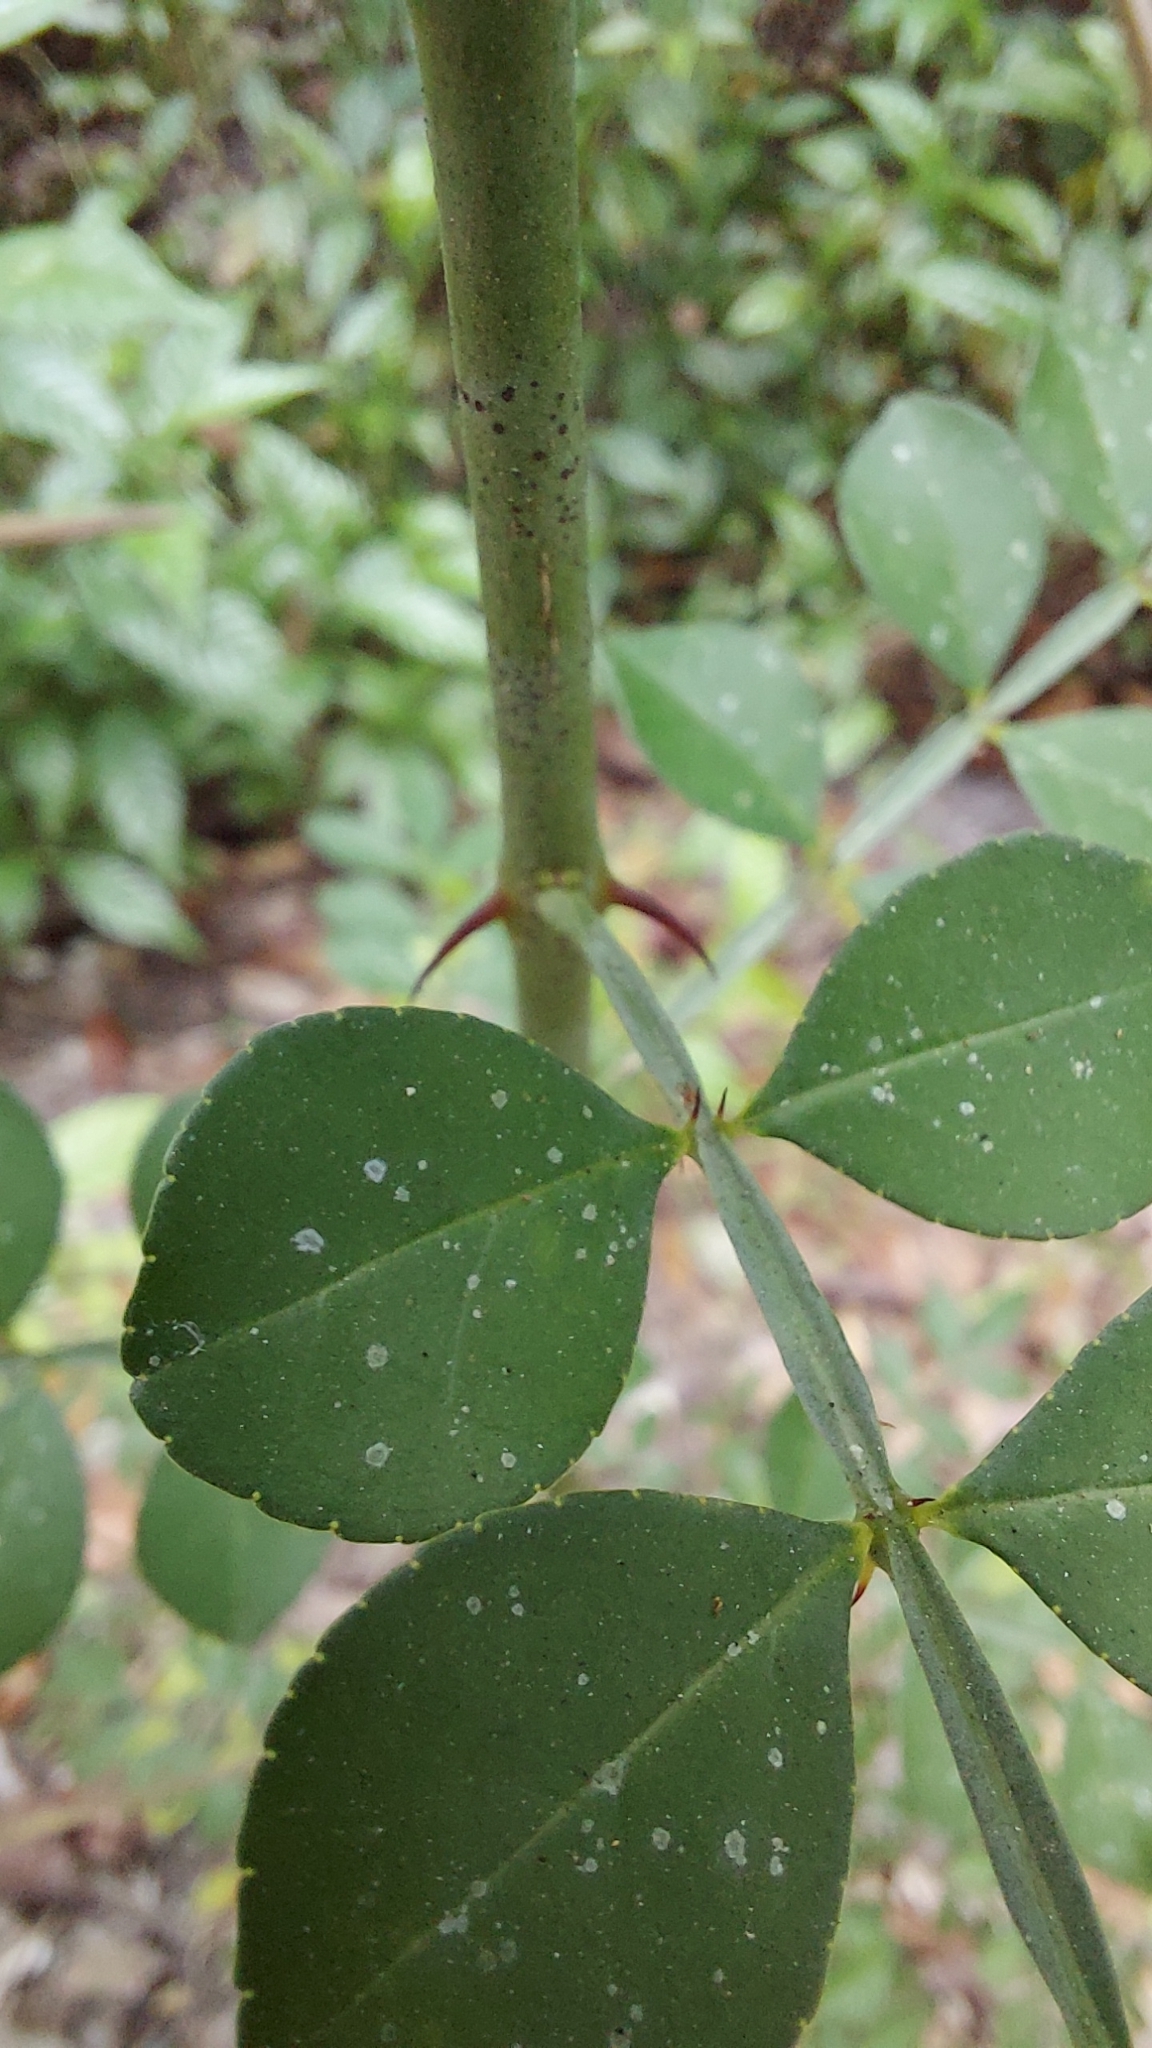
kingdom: Plantae
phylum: Tracheophyta
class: Magnoliopsida
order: Sapindales
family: Rutaceae
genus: Zanthoxylum
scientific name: Zanthoxylum fagara
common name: Lime prickly-ash
